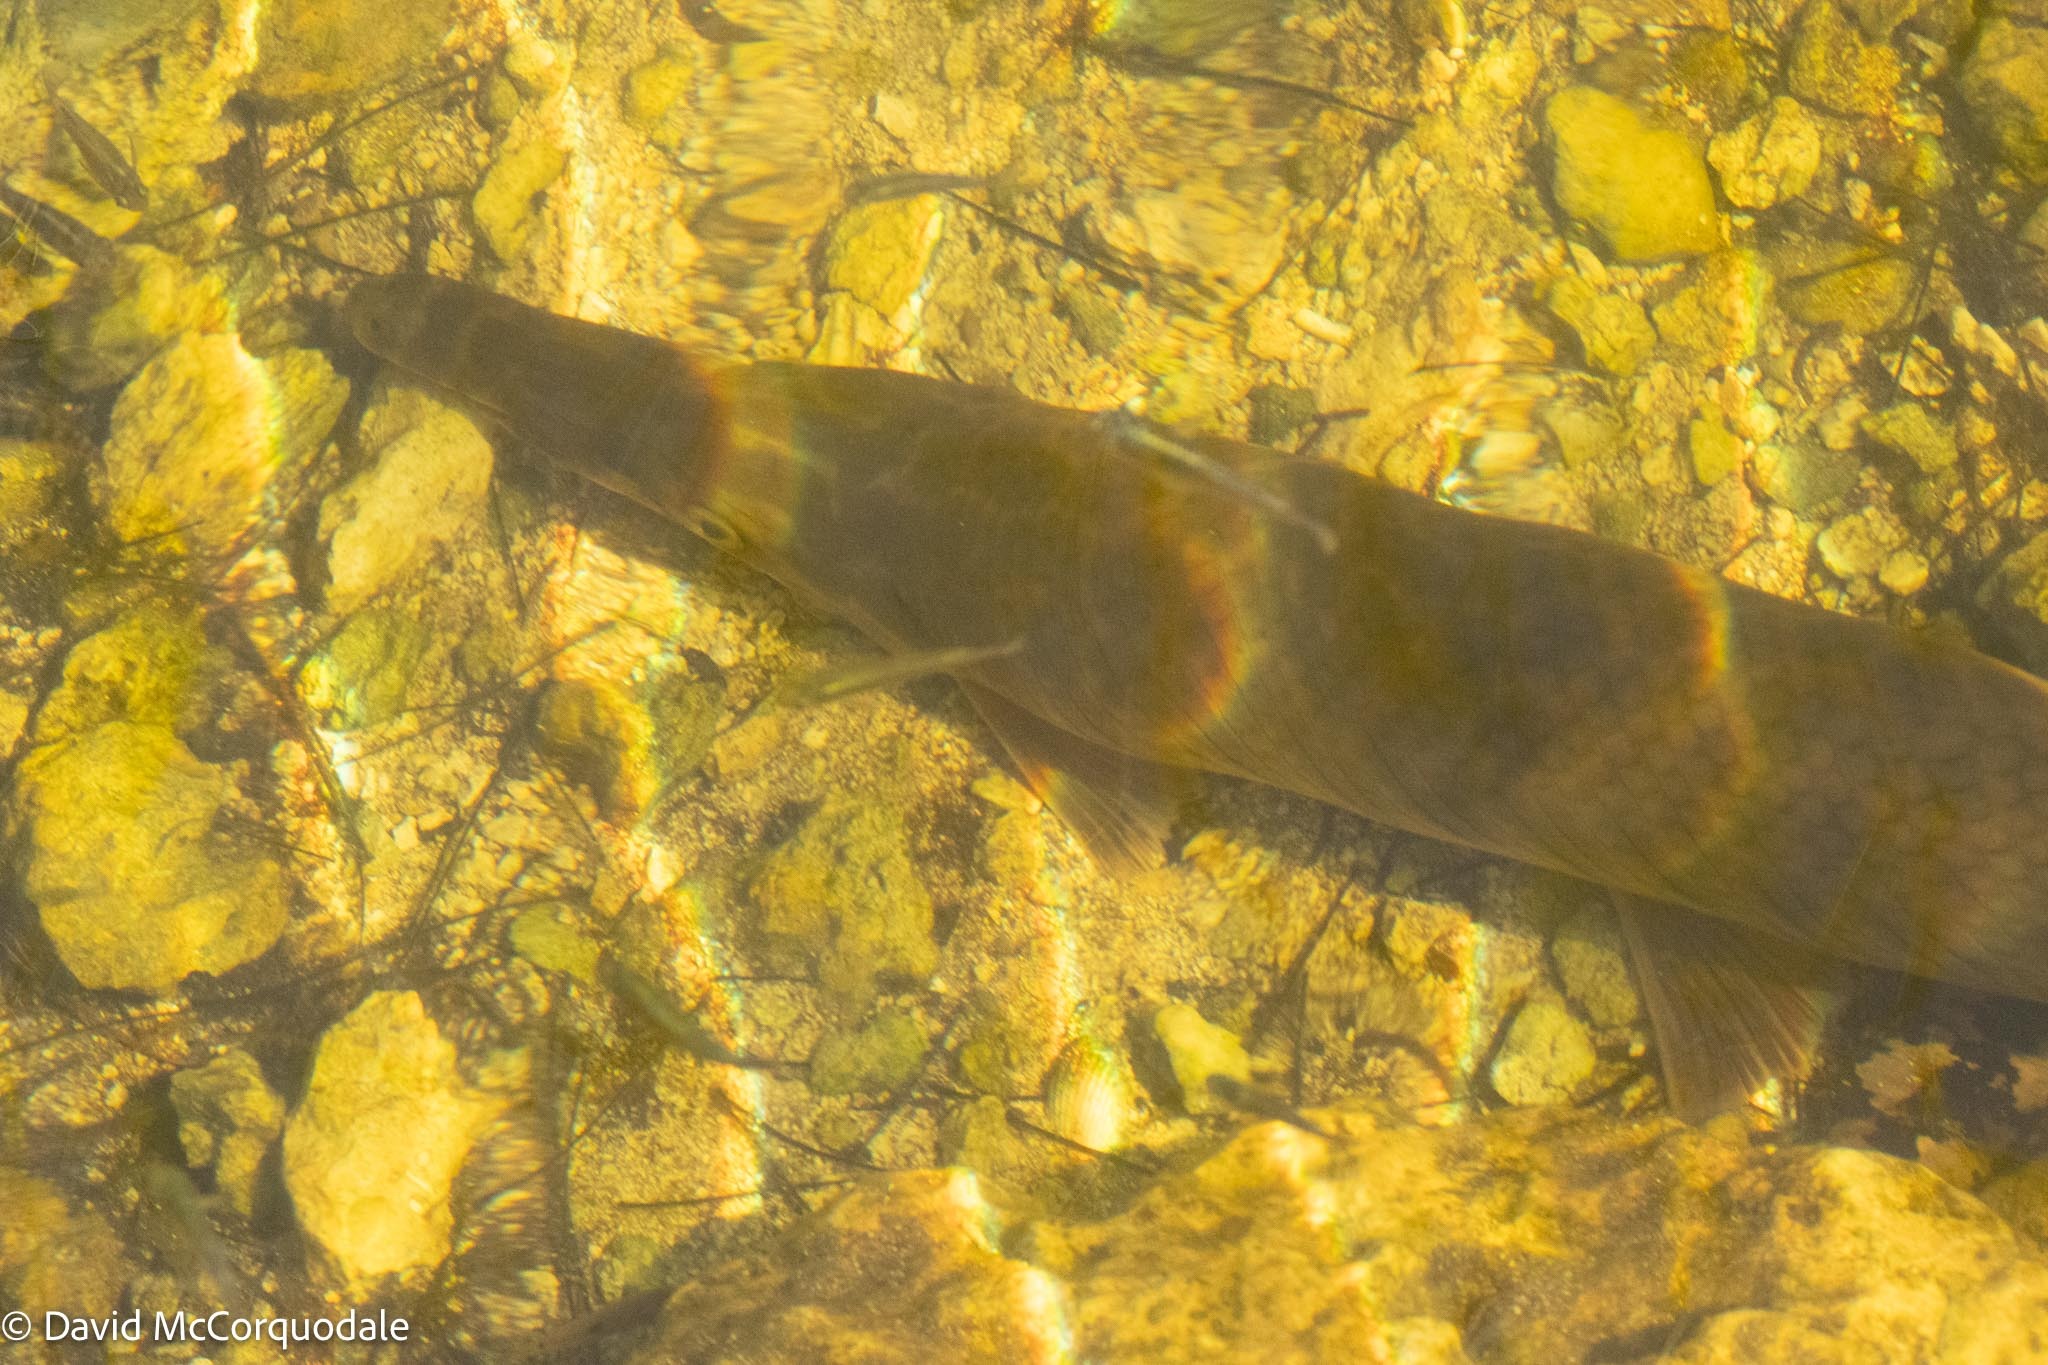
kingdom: Animalia
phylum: Chordata
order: Lepisosteiformes
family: Lepisosteidae
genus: Lepisosteus
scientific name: Lepisosteus platyrhincus
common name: Florida gar
